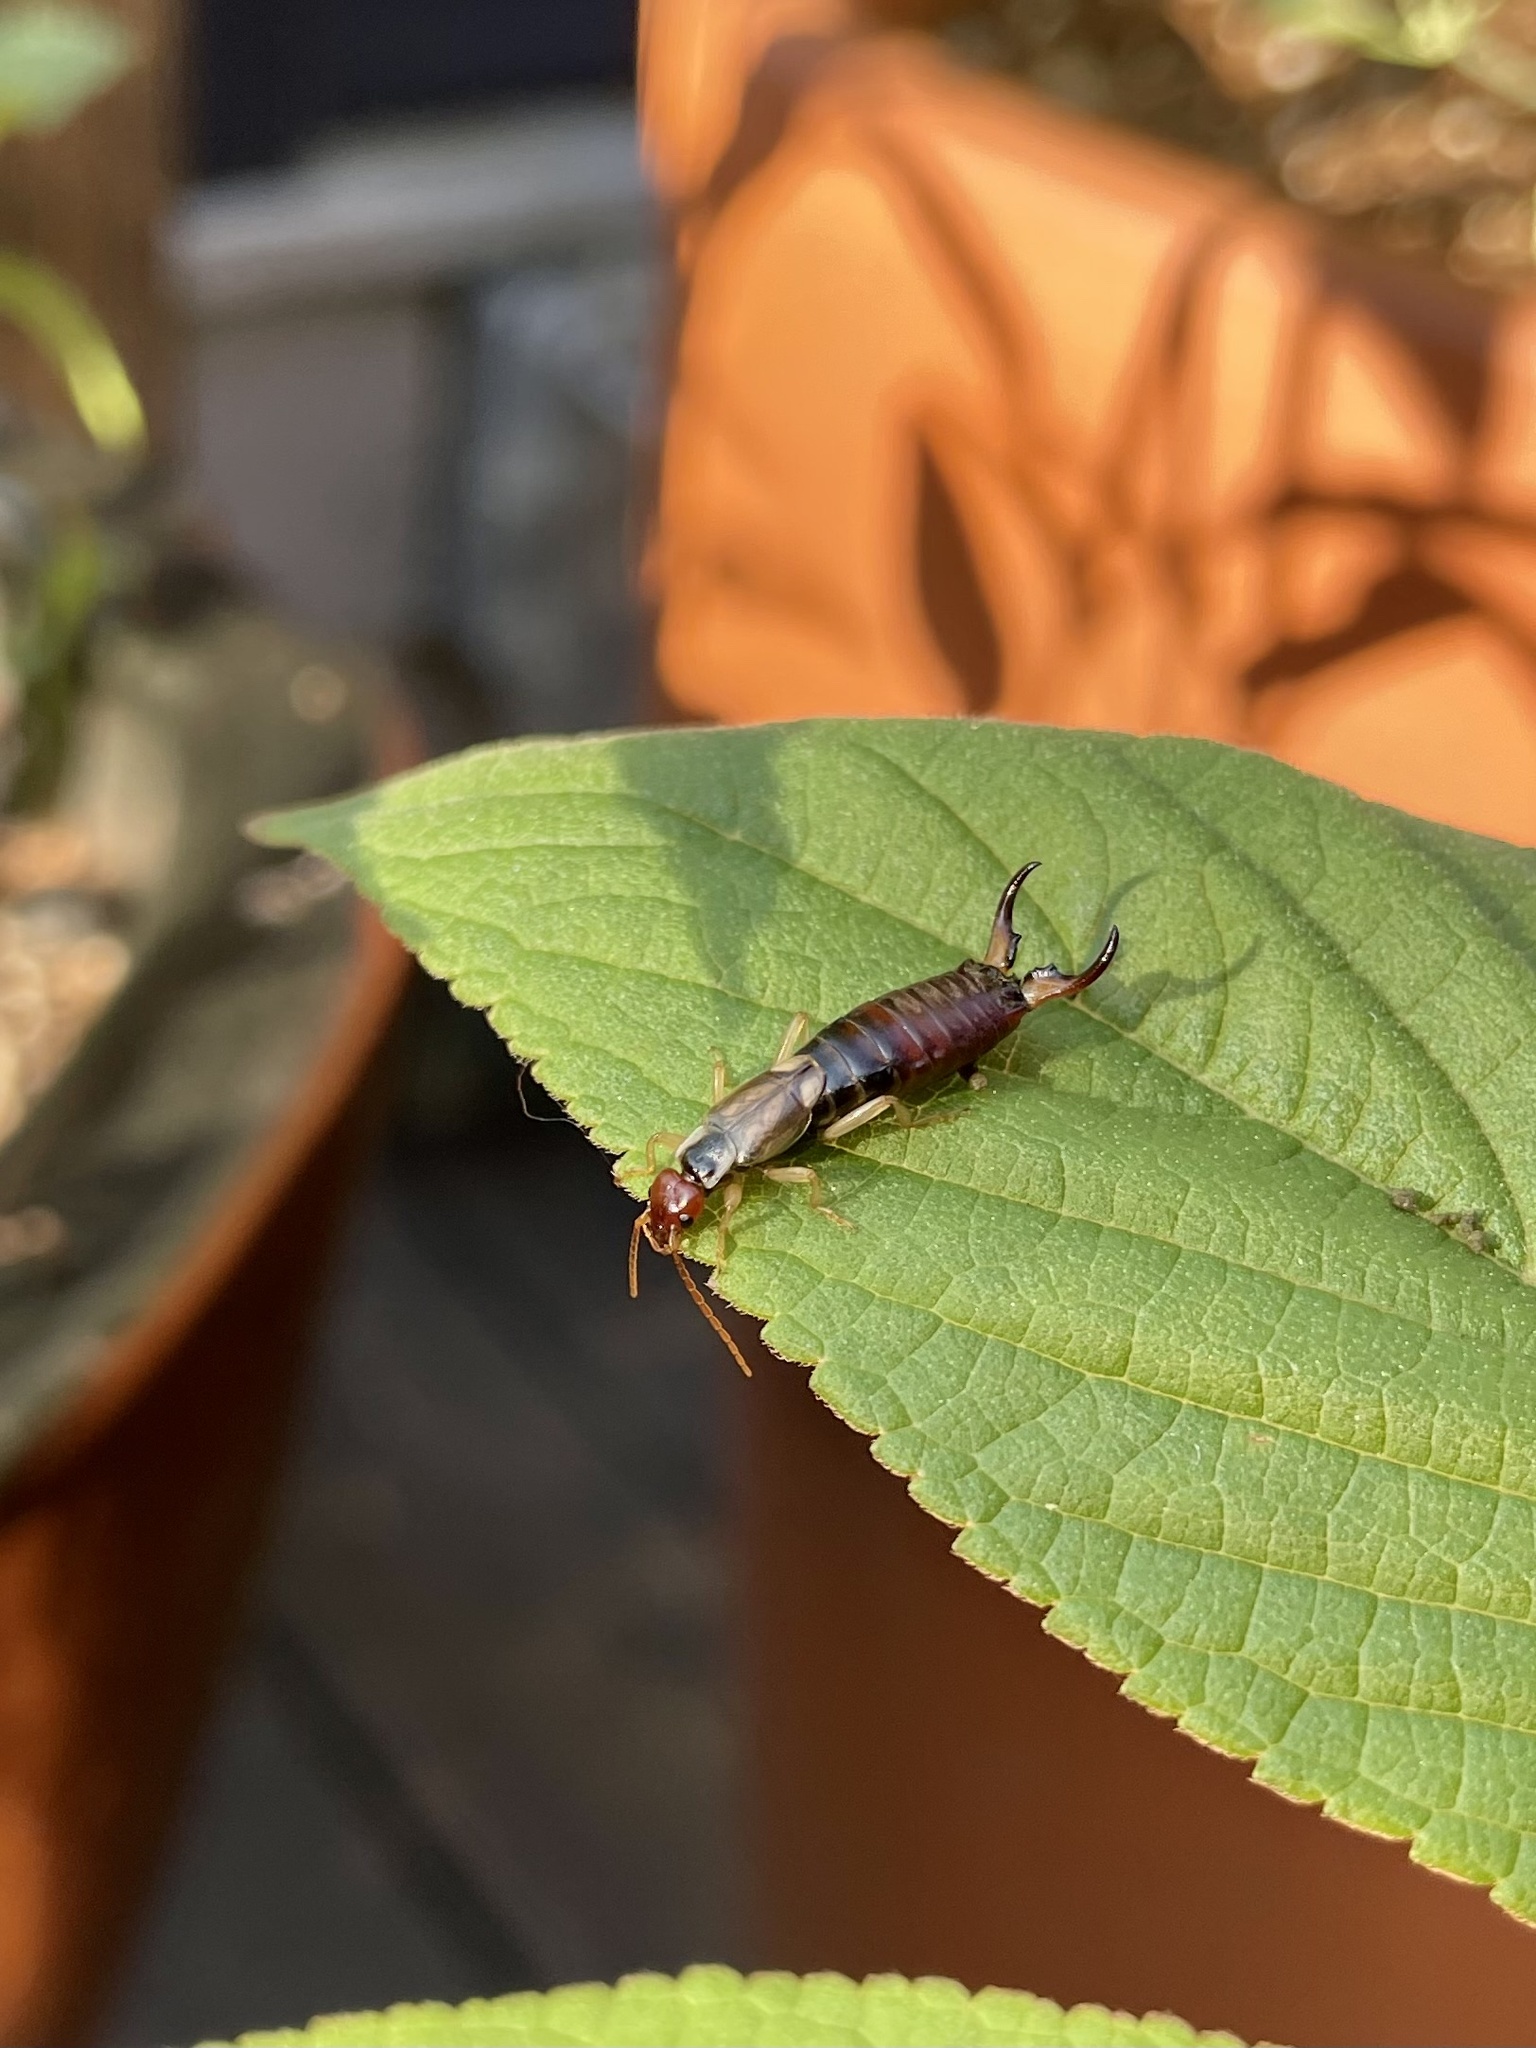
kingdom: Animalia
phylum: Arthropoda
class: Insecta
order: Dermaptera
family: Forficulidae
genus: Forficula
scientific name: Forficula dentata
